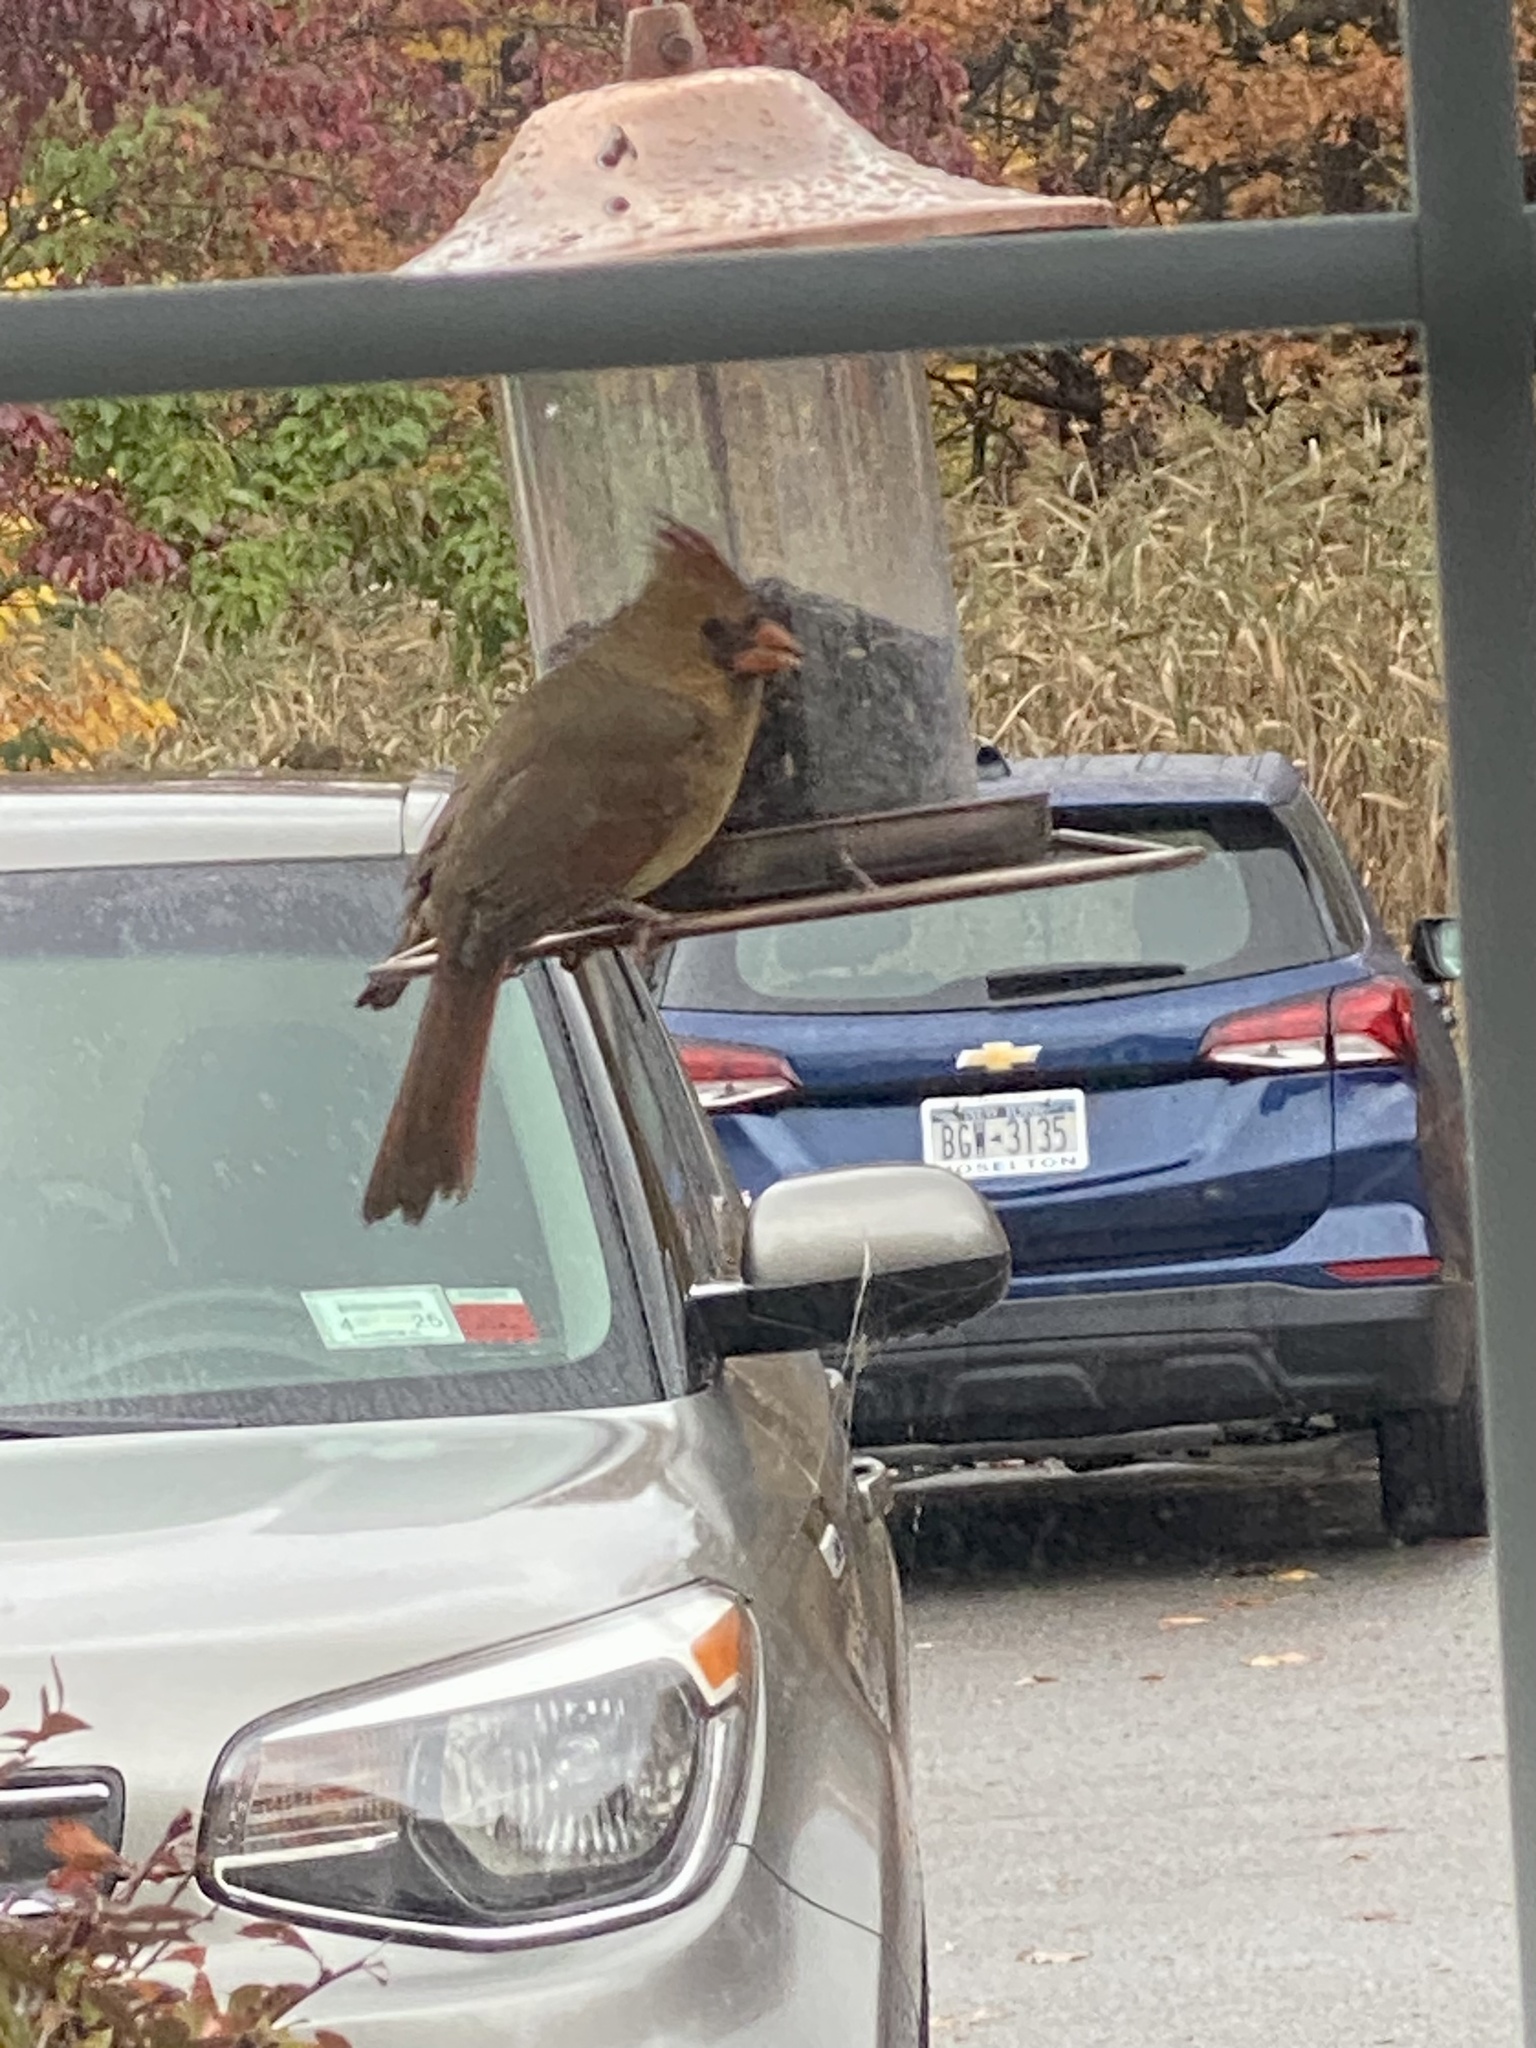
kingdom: Animalia
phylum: Chordata
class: Aves
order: Passeriformes
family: Cardinalidae
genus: Cardinalis
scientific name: Cardinalis cardinalis
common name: Northern cardinal
